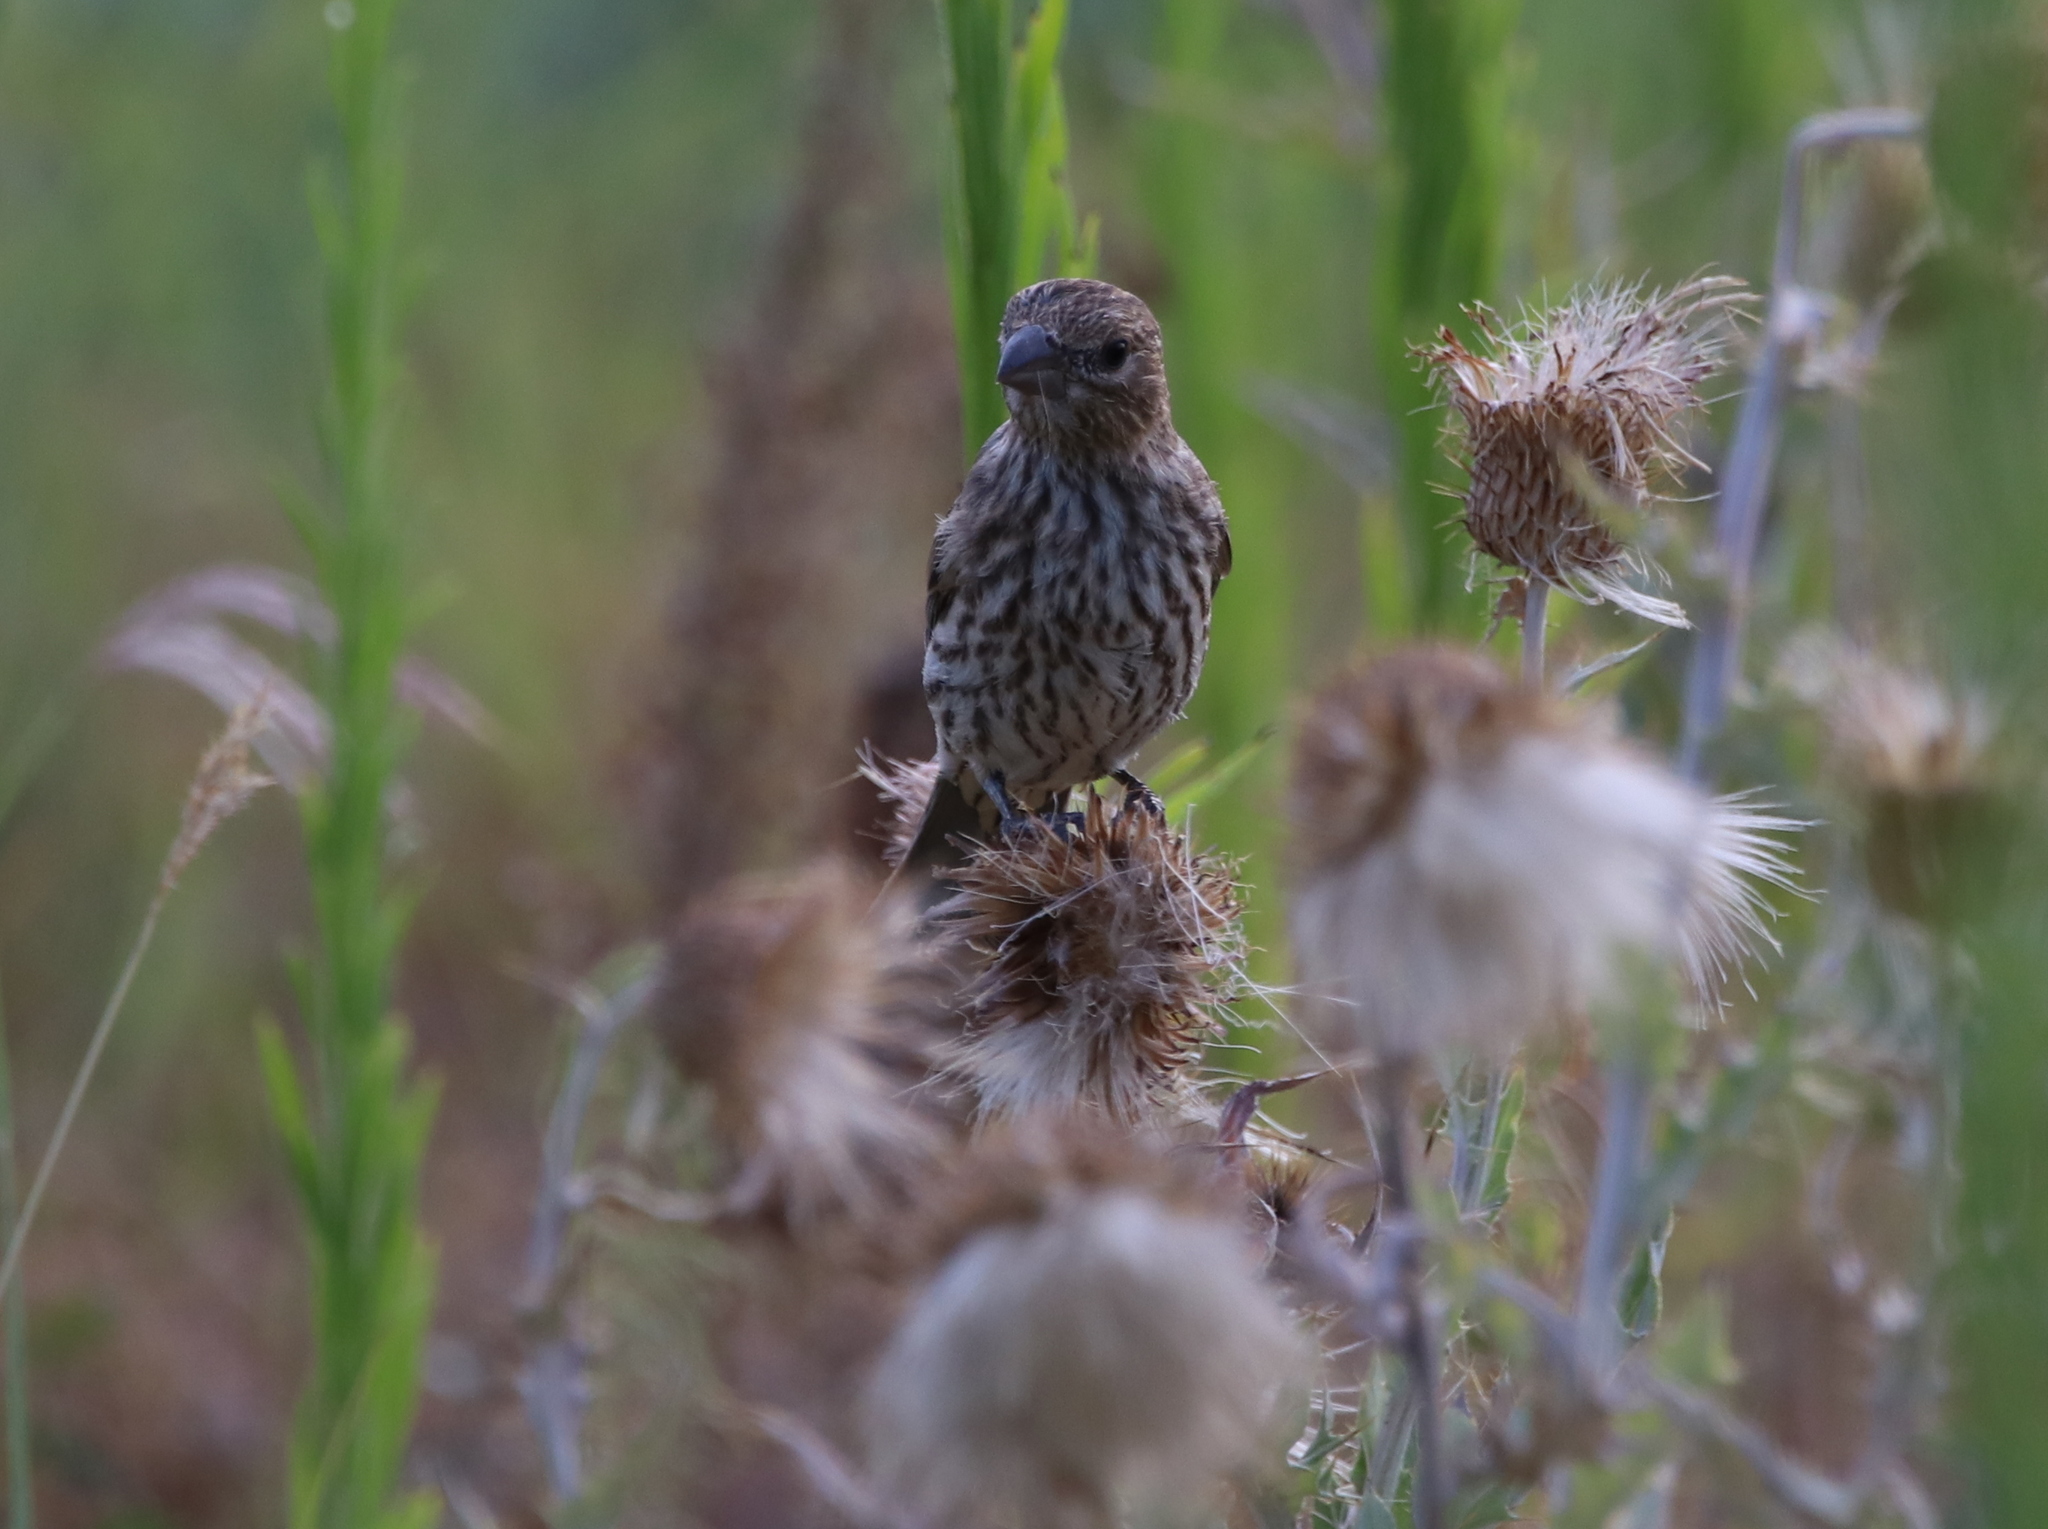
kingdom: Animalia
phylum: Chordata
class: Aves
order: Passeriformes
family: Fringillidae
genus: Haemorhous
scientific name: Haemorhous mexicanus
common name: House finch
